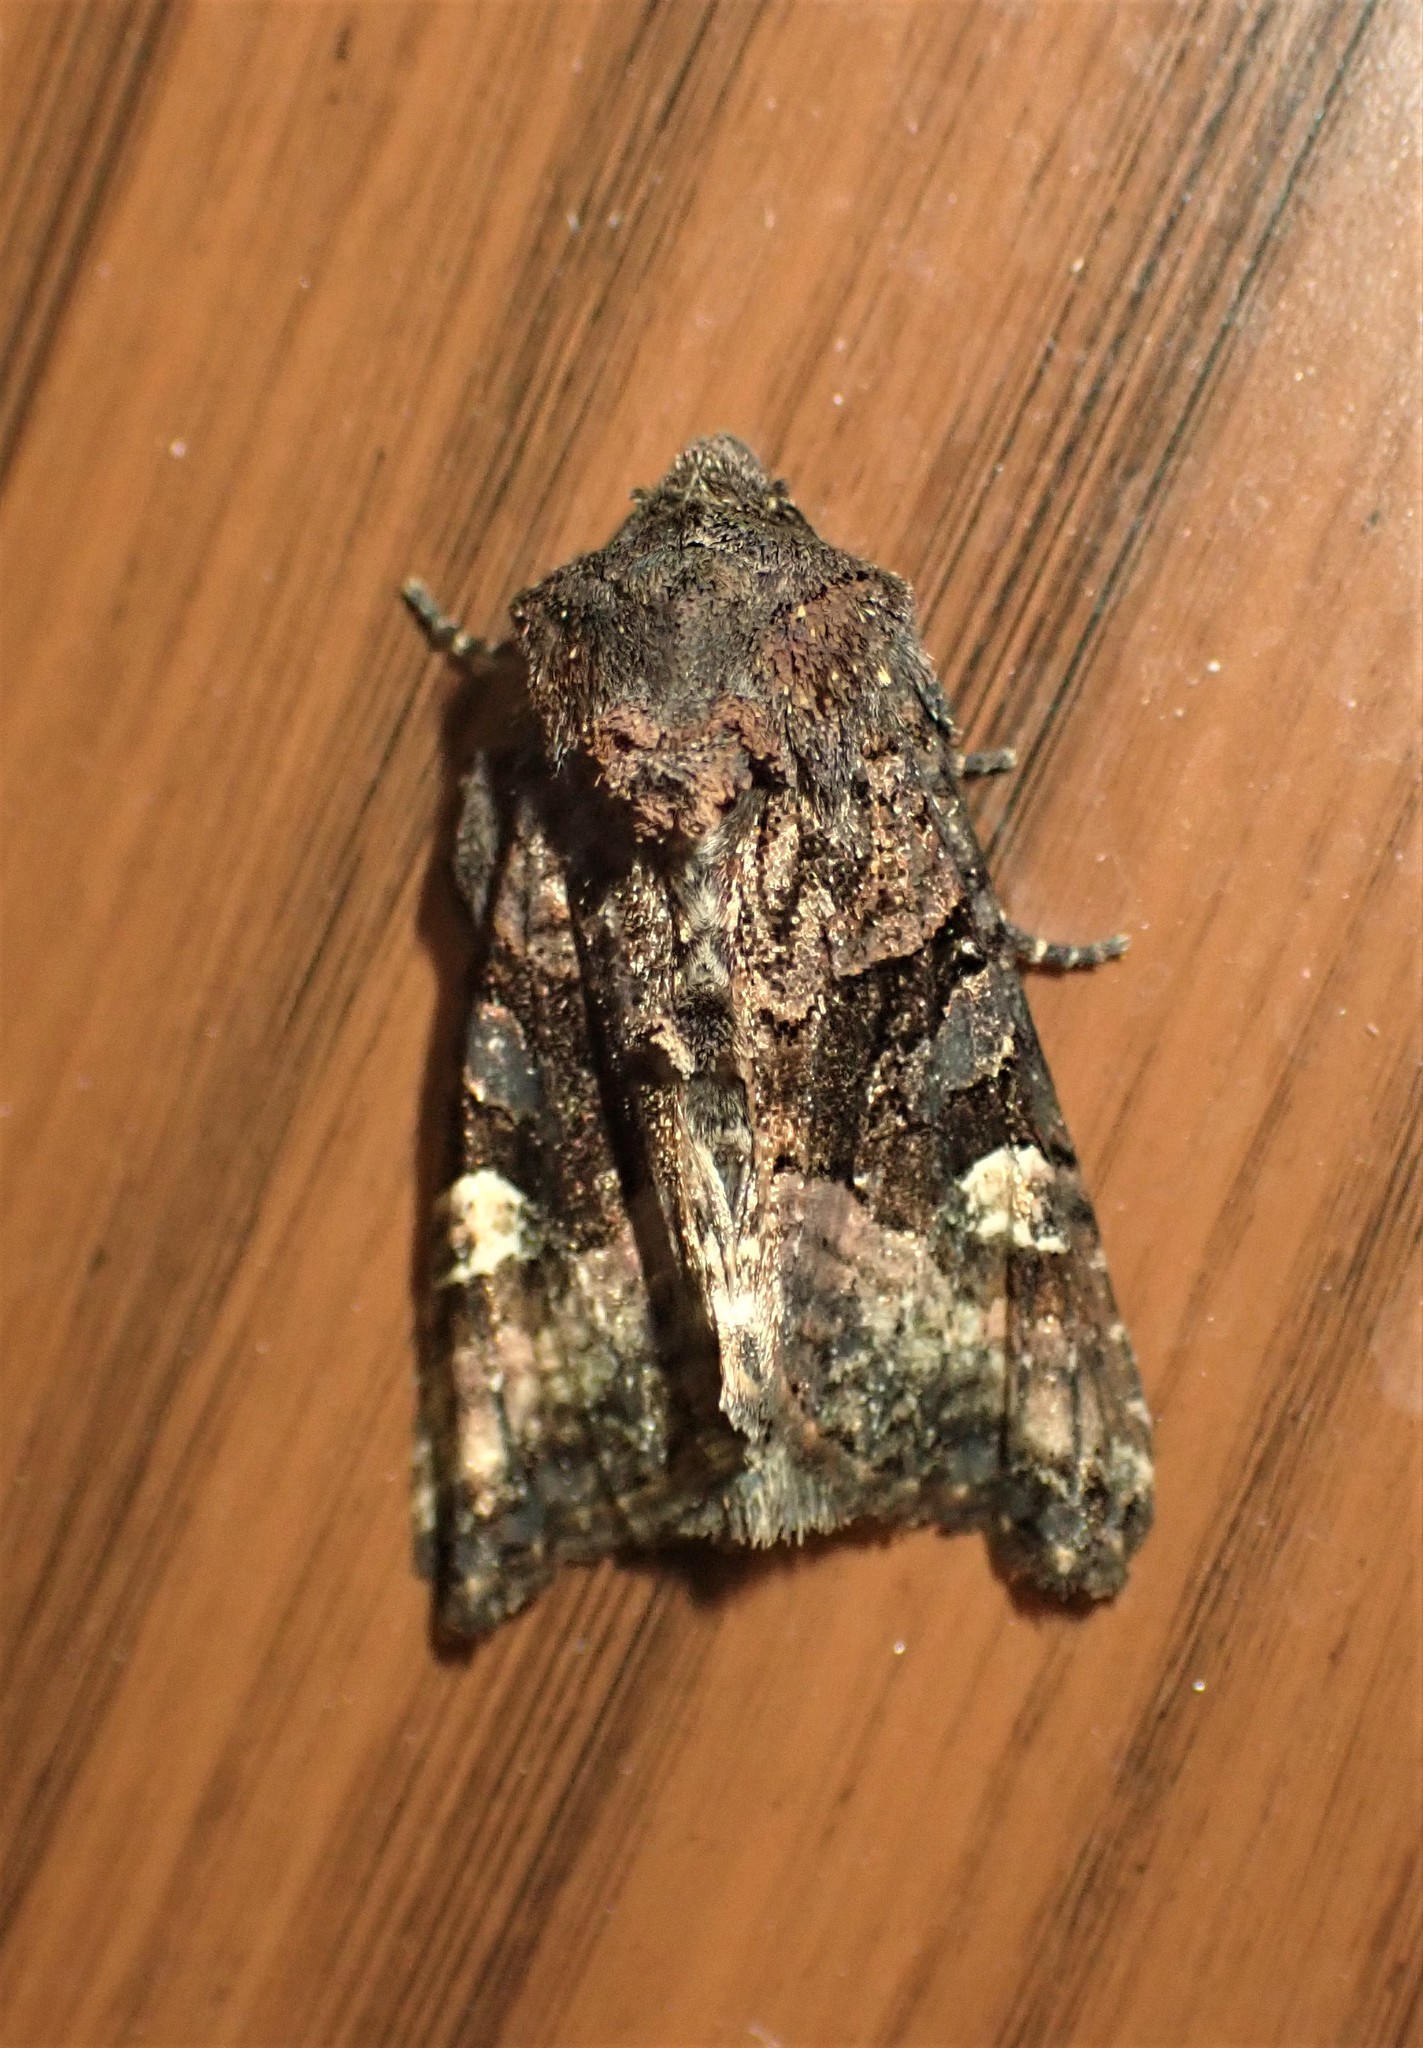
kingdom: Animalia
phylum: Arthropoda
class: Insecta
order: Lepidoptera
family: Noctuidae
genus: Euplexia
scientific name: Euplexia benesimilis
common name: American angle shades
